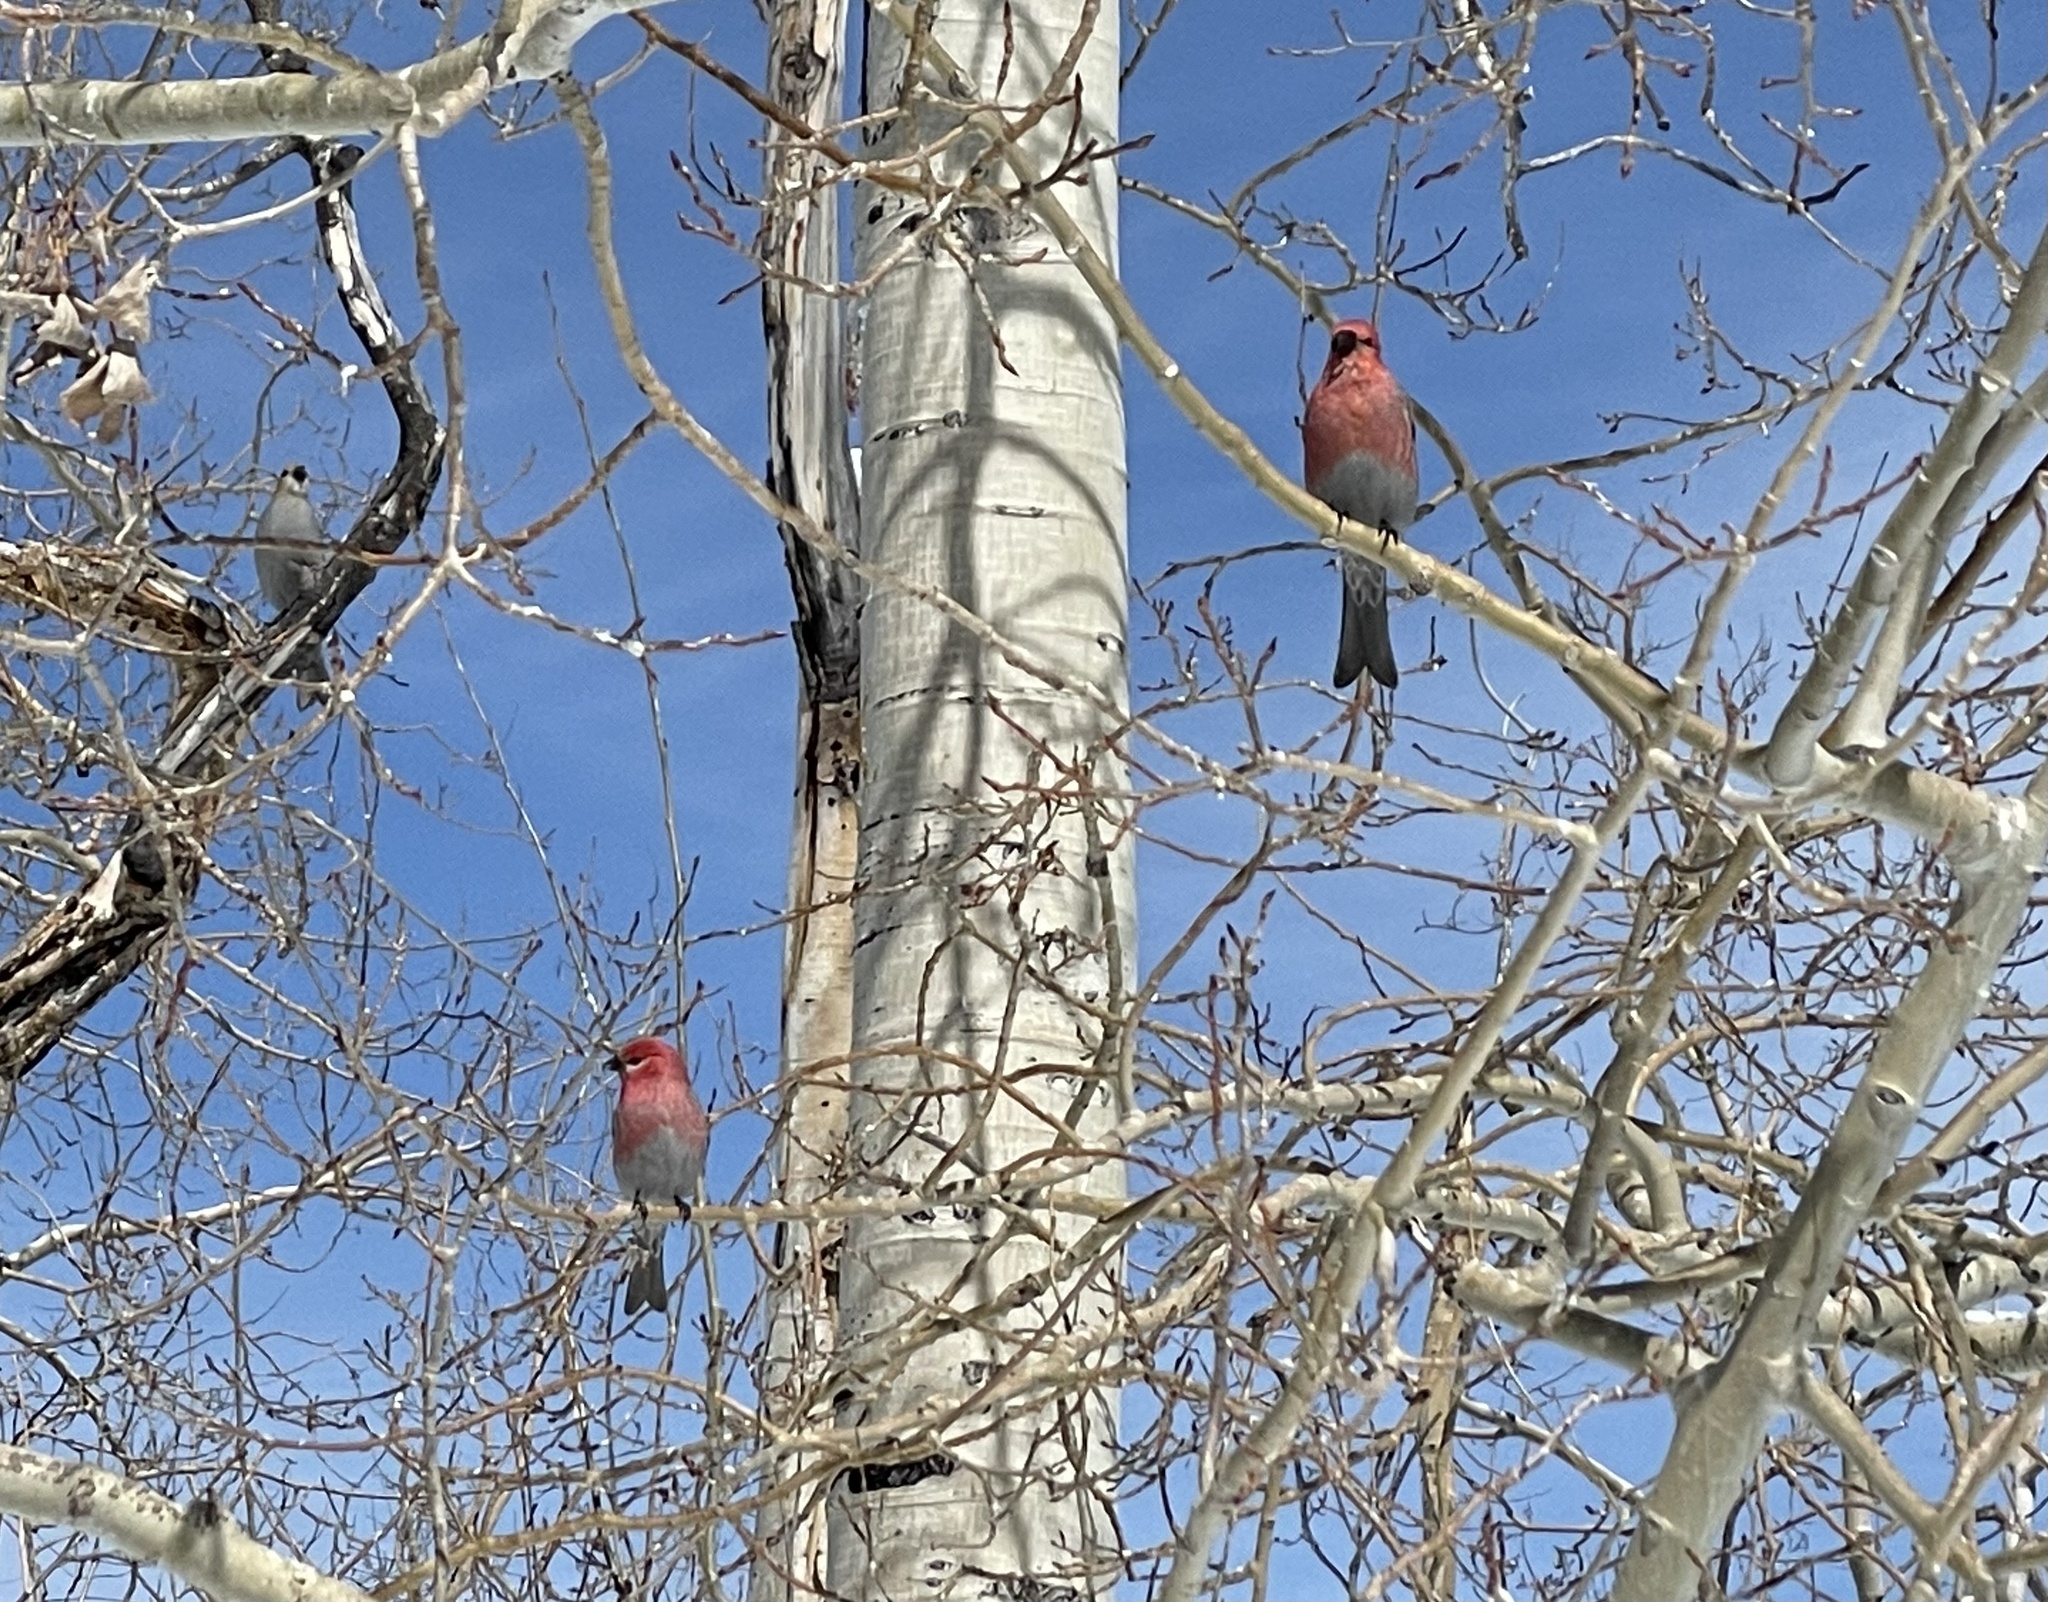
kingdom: Animalia
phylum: Chordata
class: Aves
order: Passeriformes
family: Fringillidae
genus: Pinicola
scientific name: Pinicola enucleator
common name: Pine grosbeak
